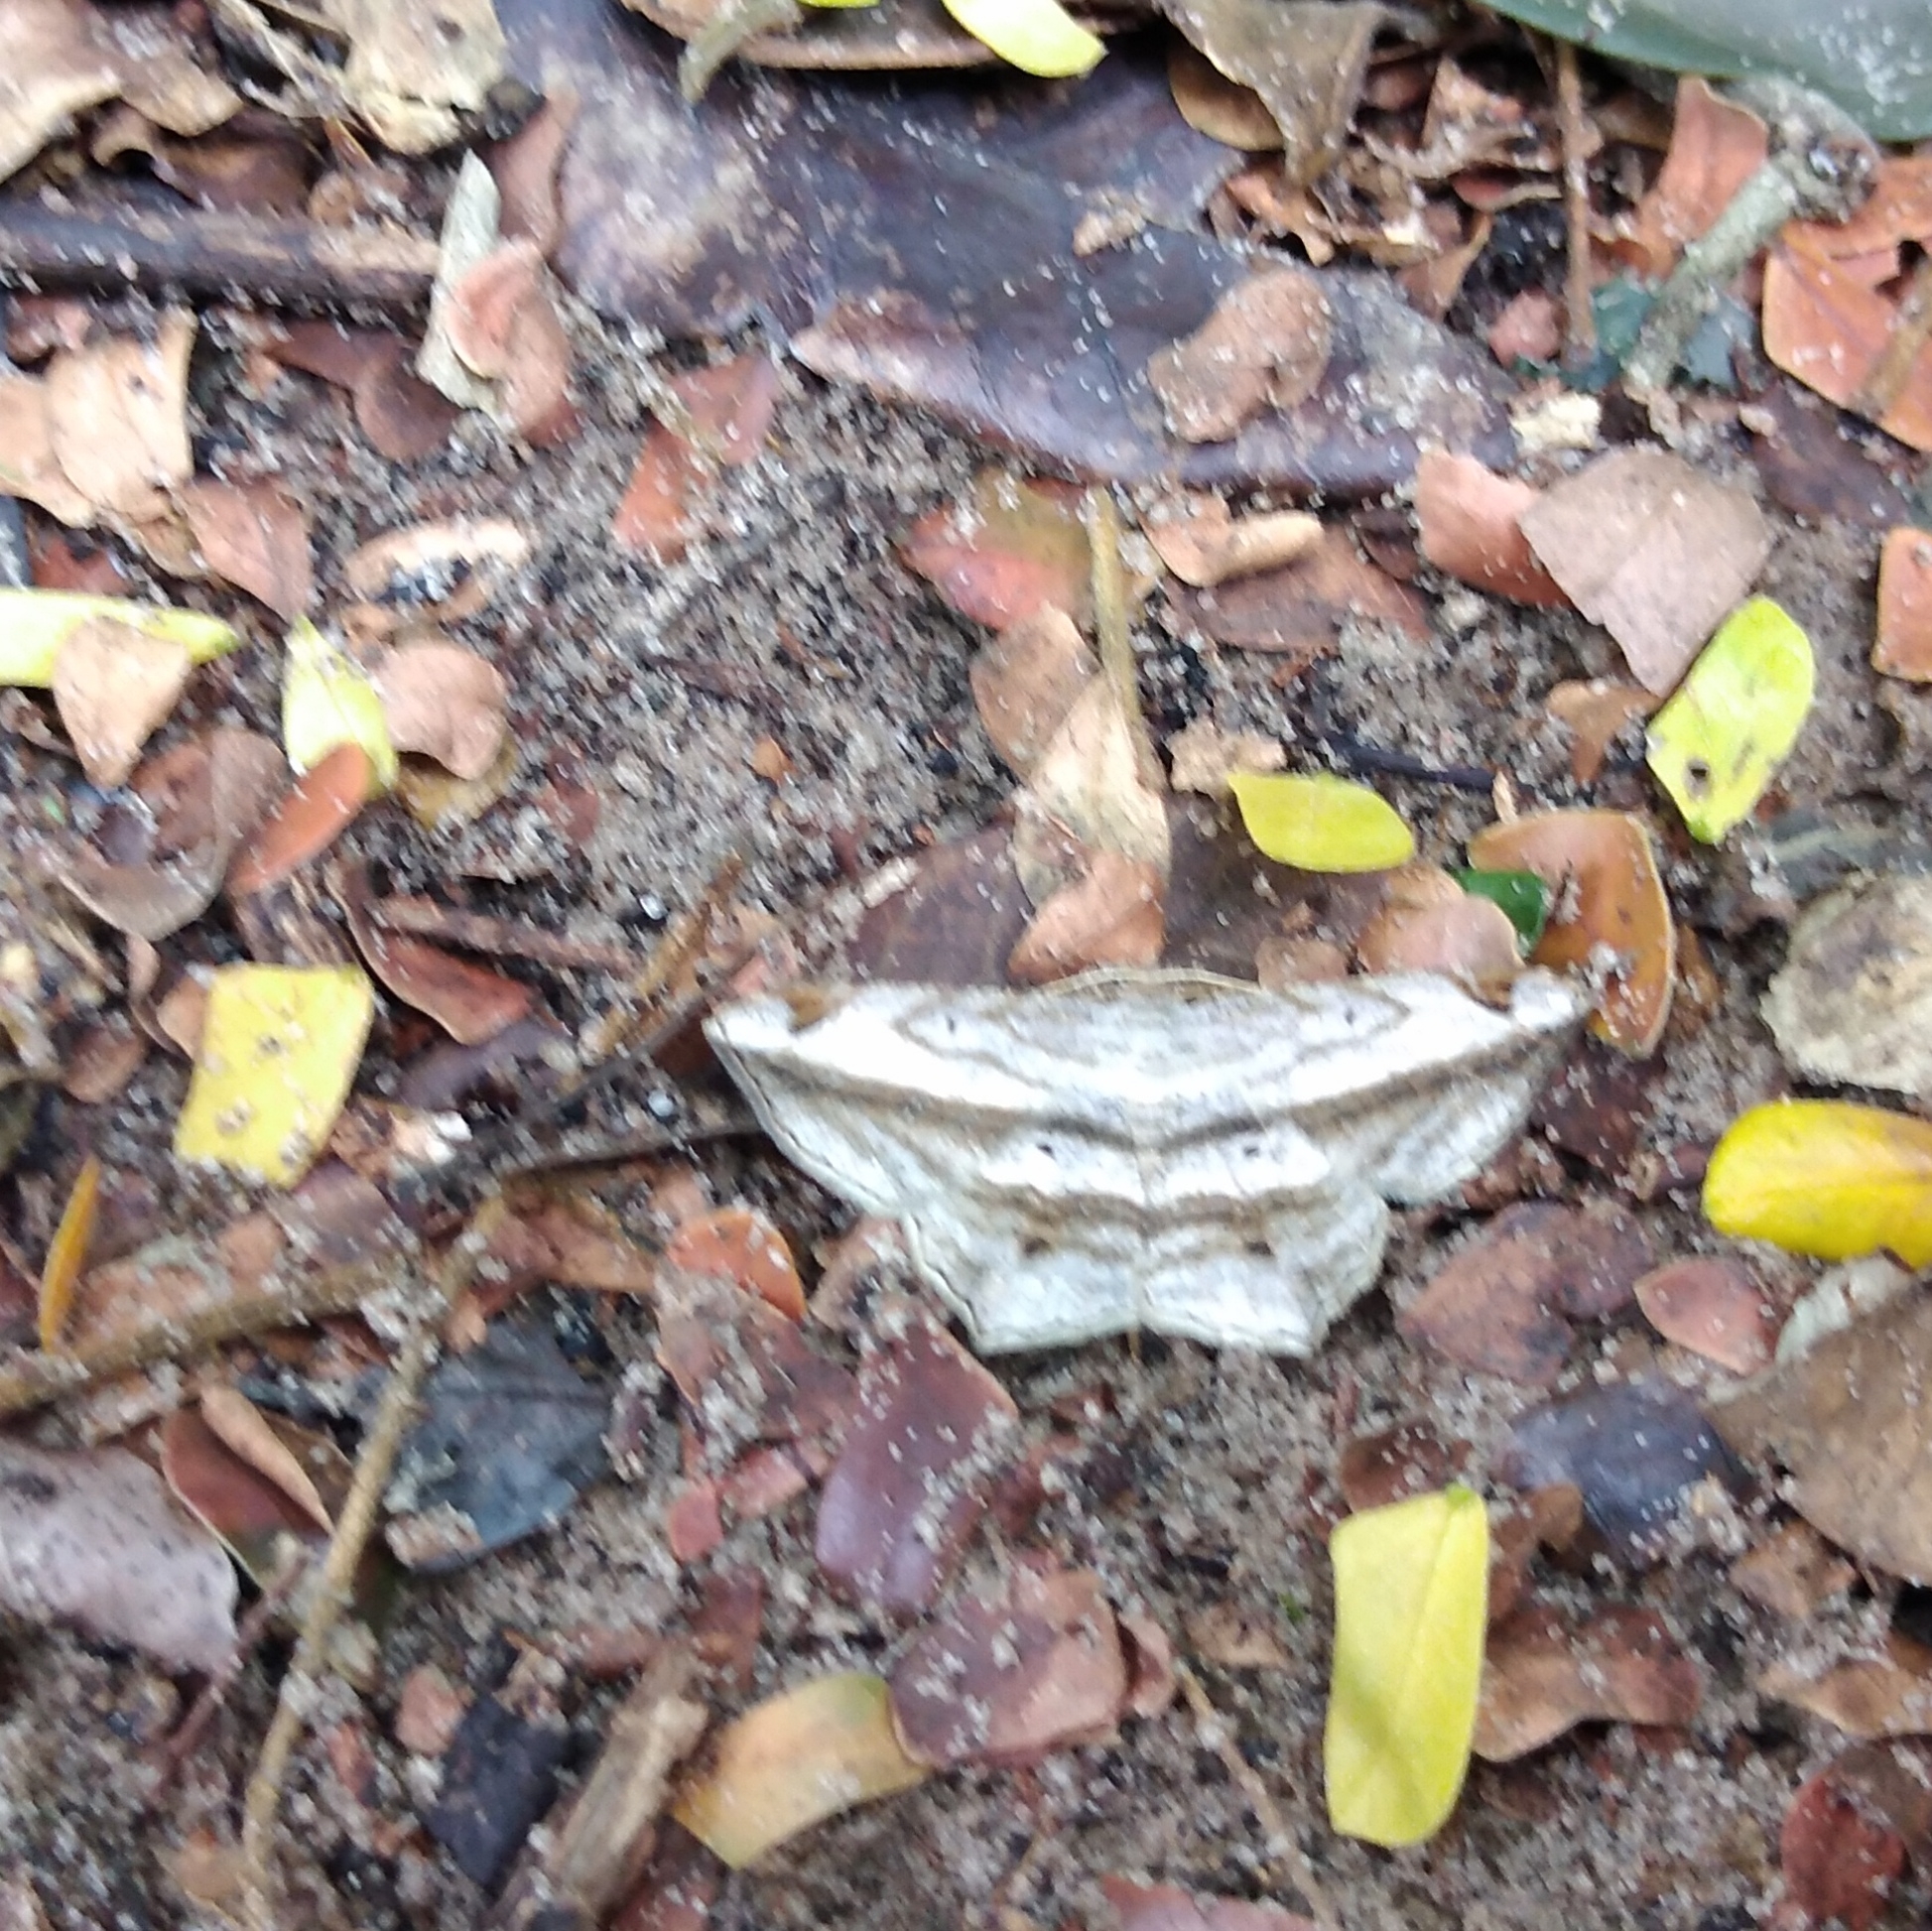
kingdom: Animalia
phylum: Arthropoda
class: Insecta
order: Lepidoptera
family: Geometridae
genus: Chiasmia
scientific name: Chiasmia rectistriaria
